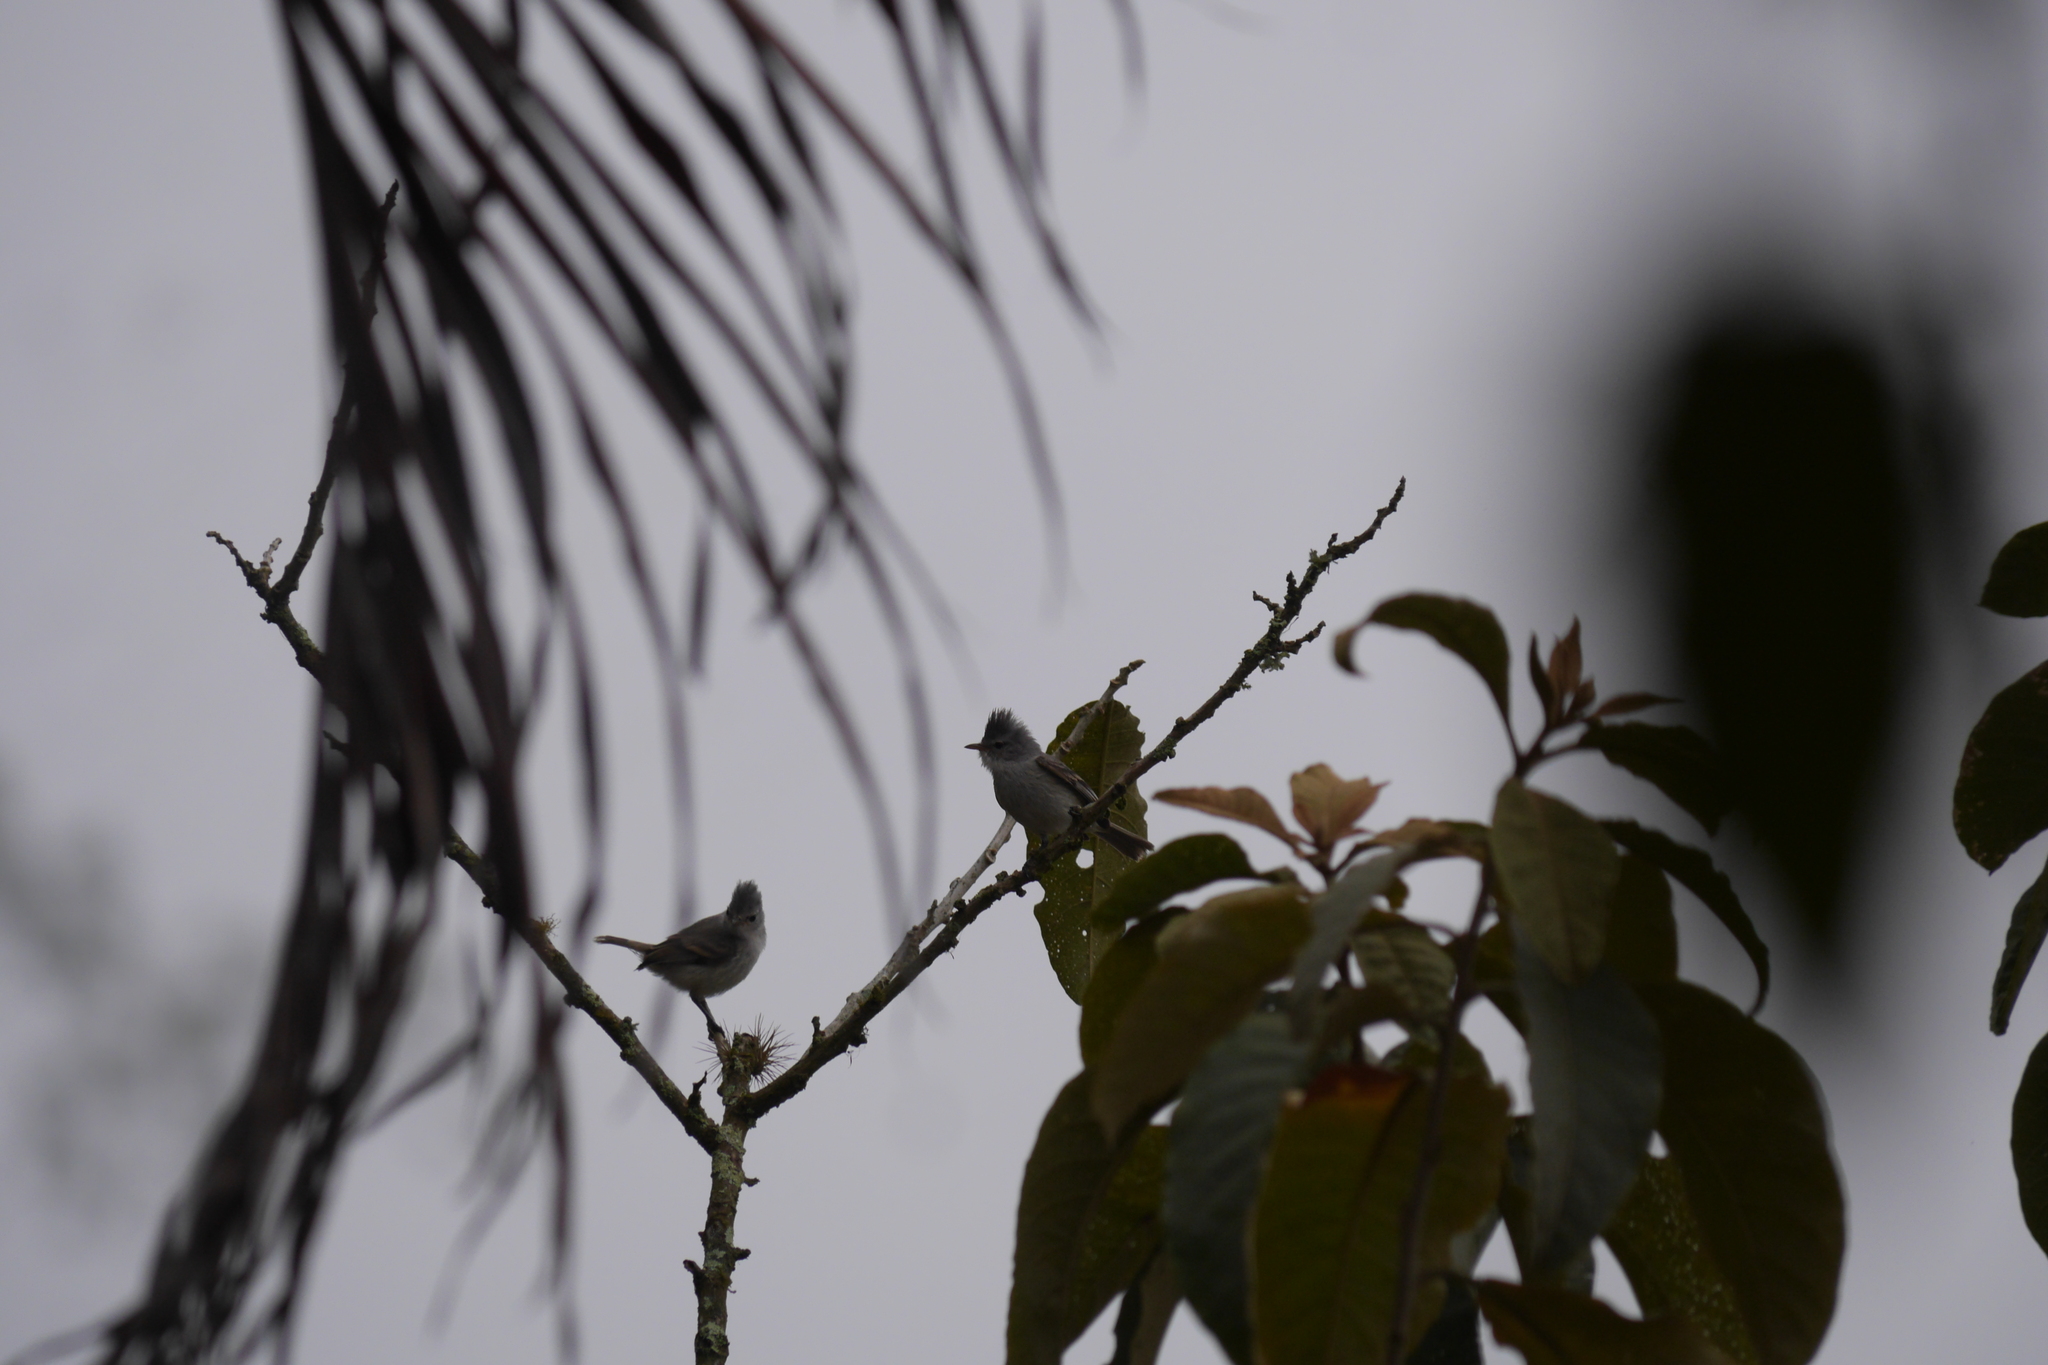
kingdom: Animalia
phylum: Chordata
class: Aves
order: Passeriformes
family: Tyrannidae
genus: Camptostoma
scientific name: Camptostoma obsoletum
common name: Southern beardless-tyrannulet
